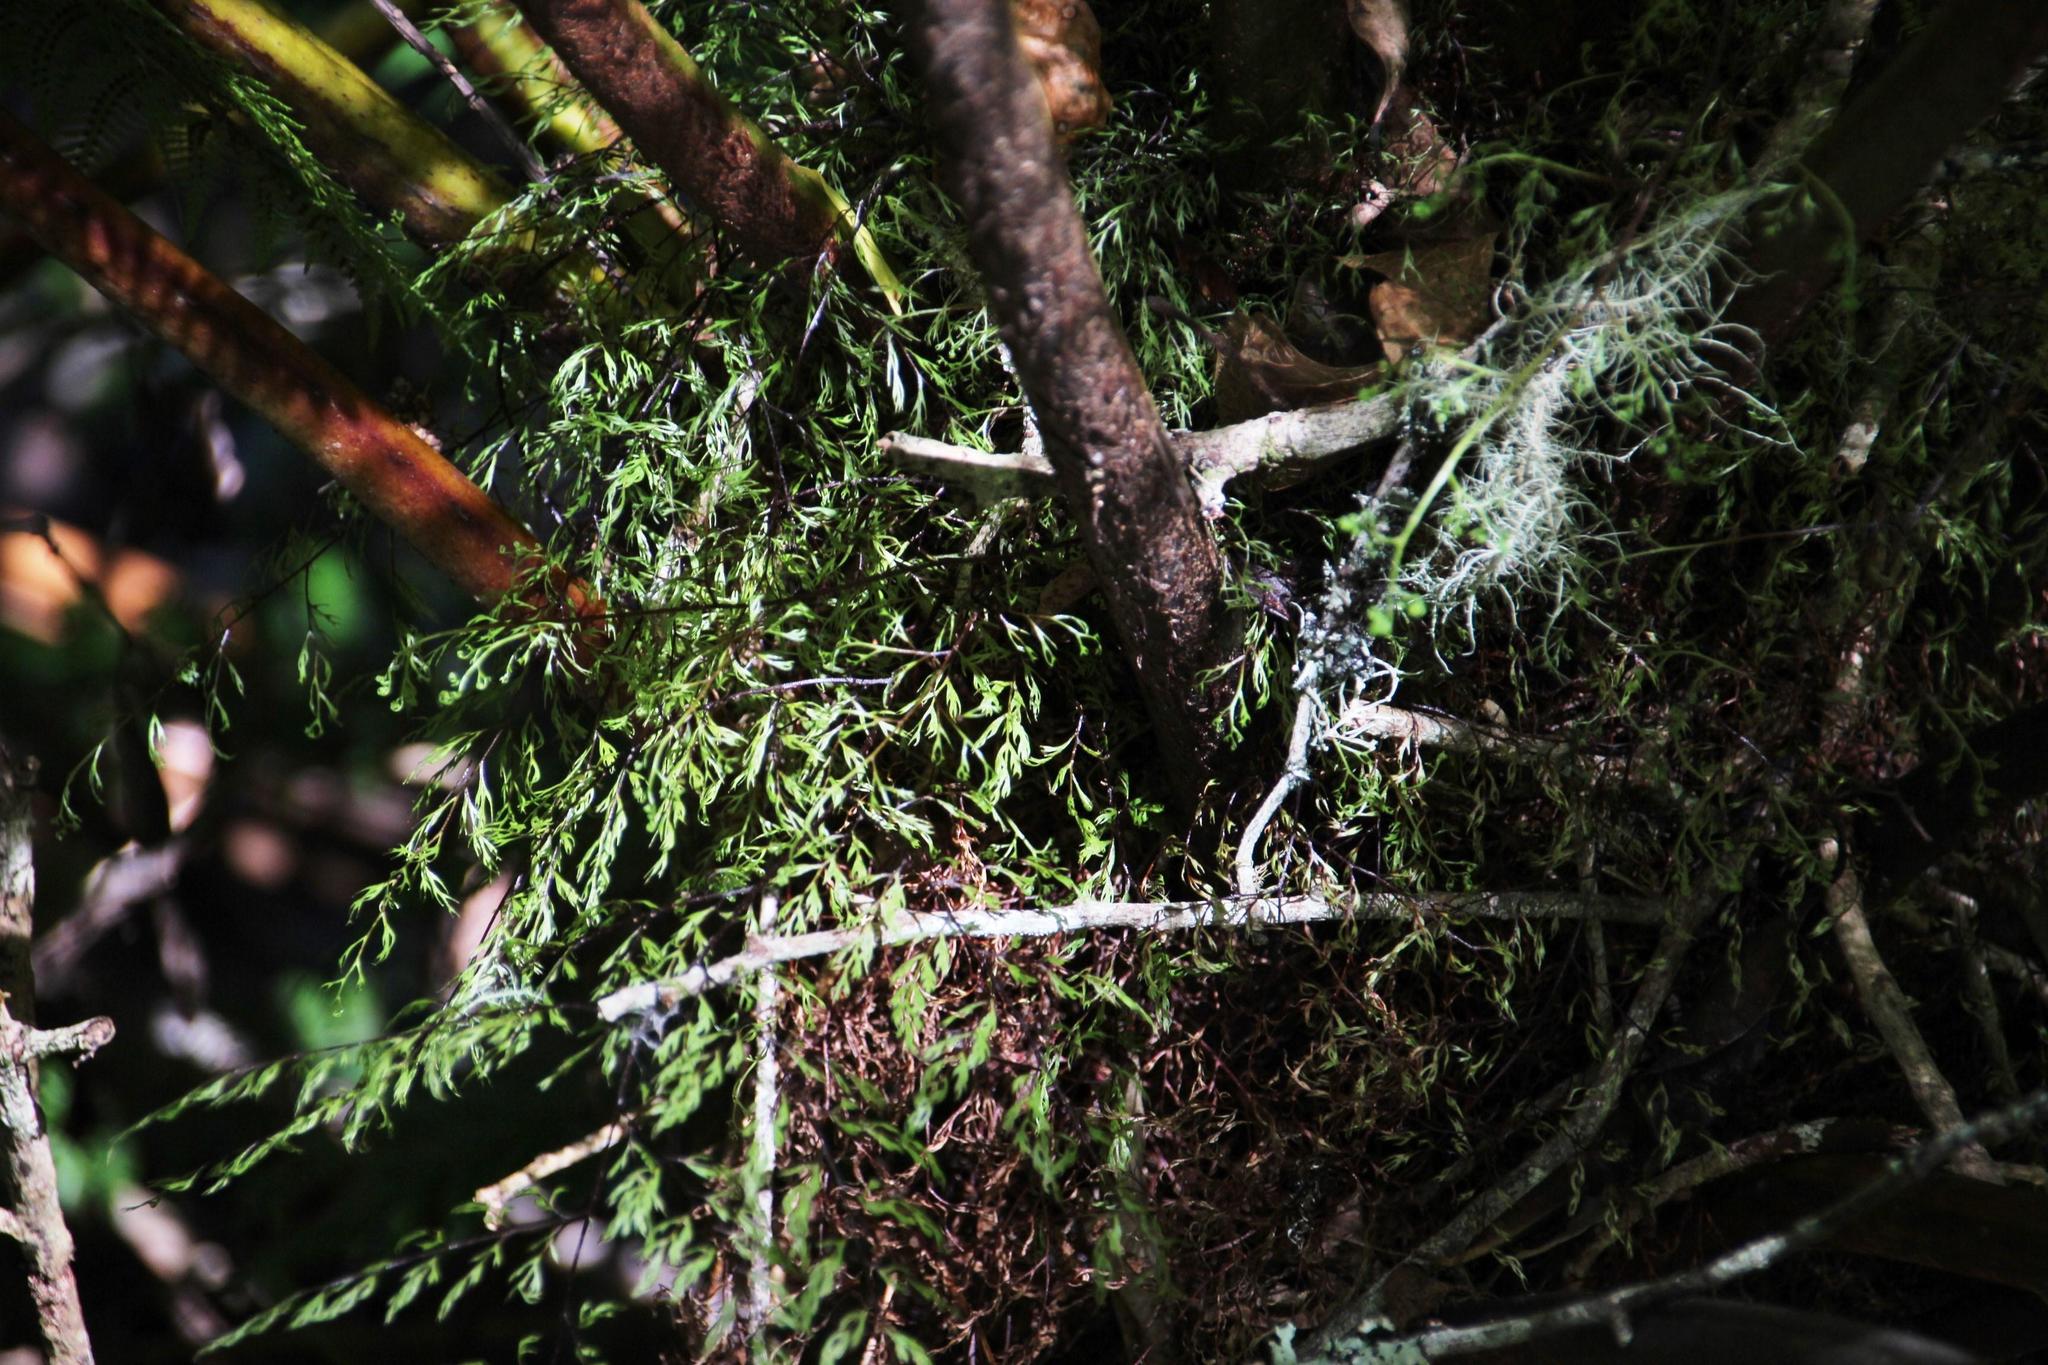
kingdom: Plantae
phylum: Tracheophyta
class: Polypodiopsida
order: Cyatheales
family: Cyatheaceae
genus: Gymnosphaera
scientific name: Gymnosphaera capensis
